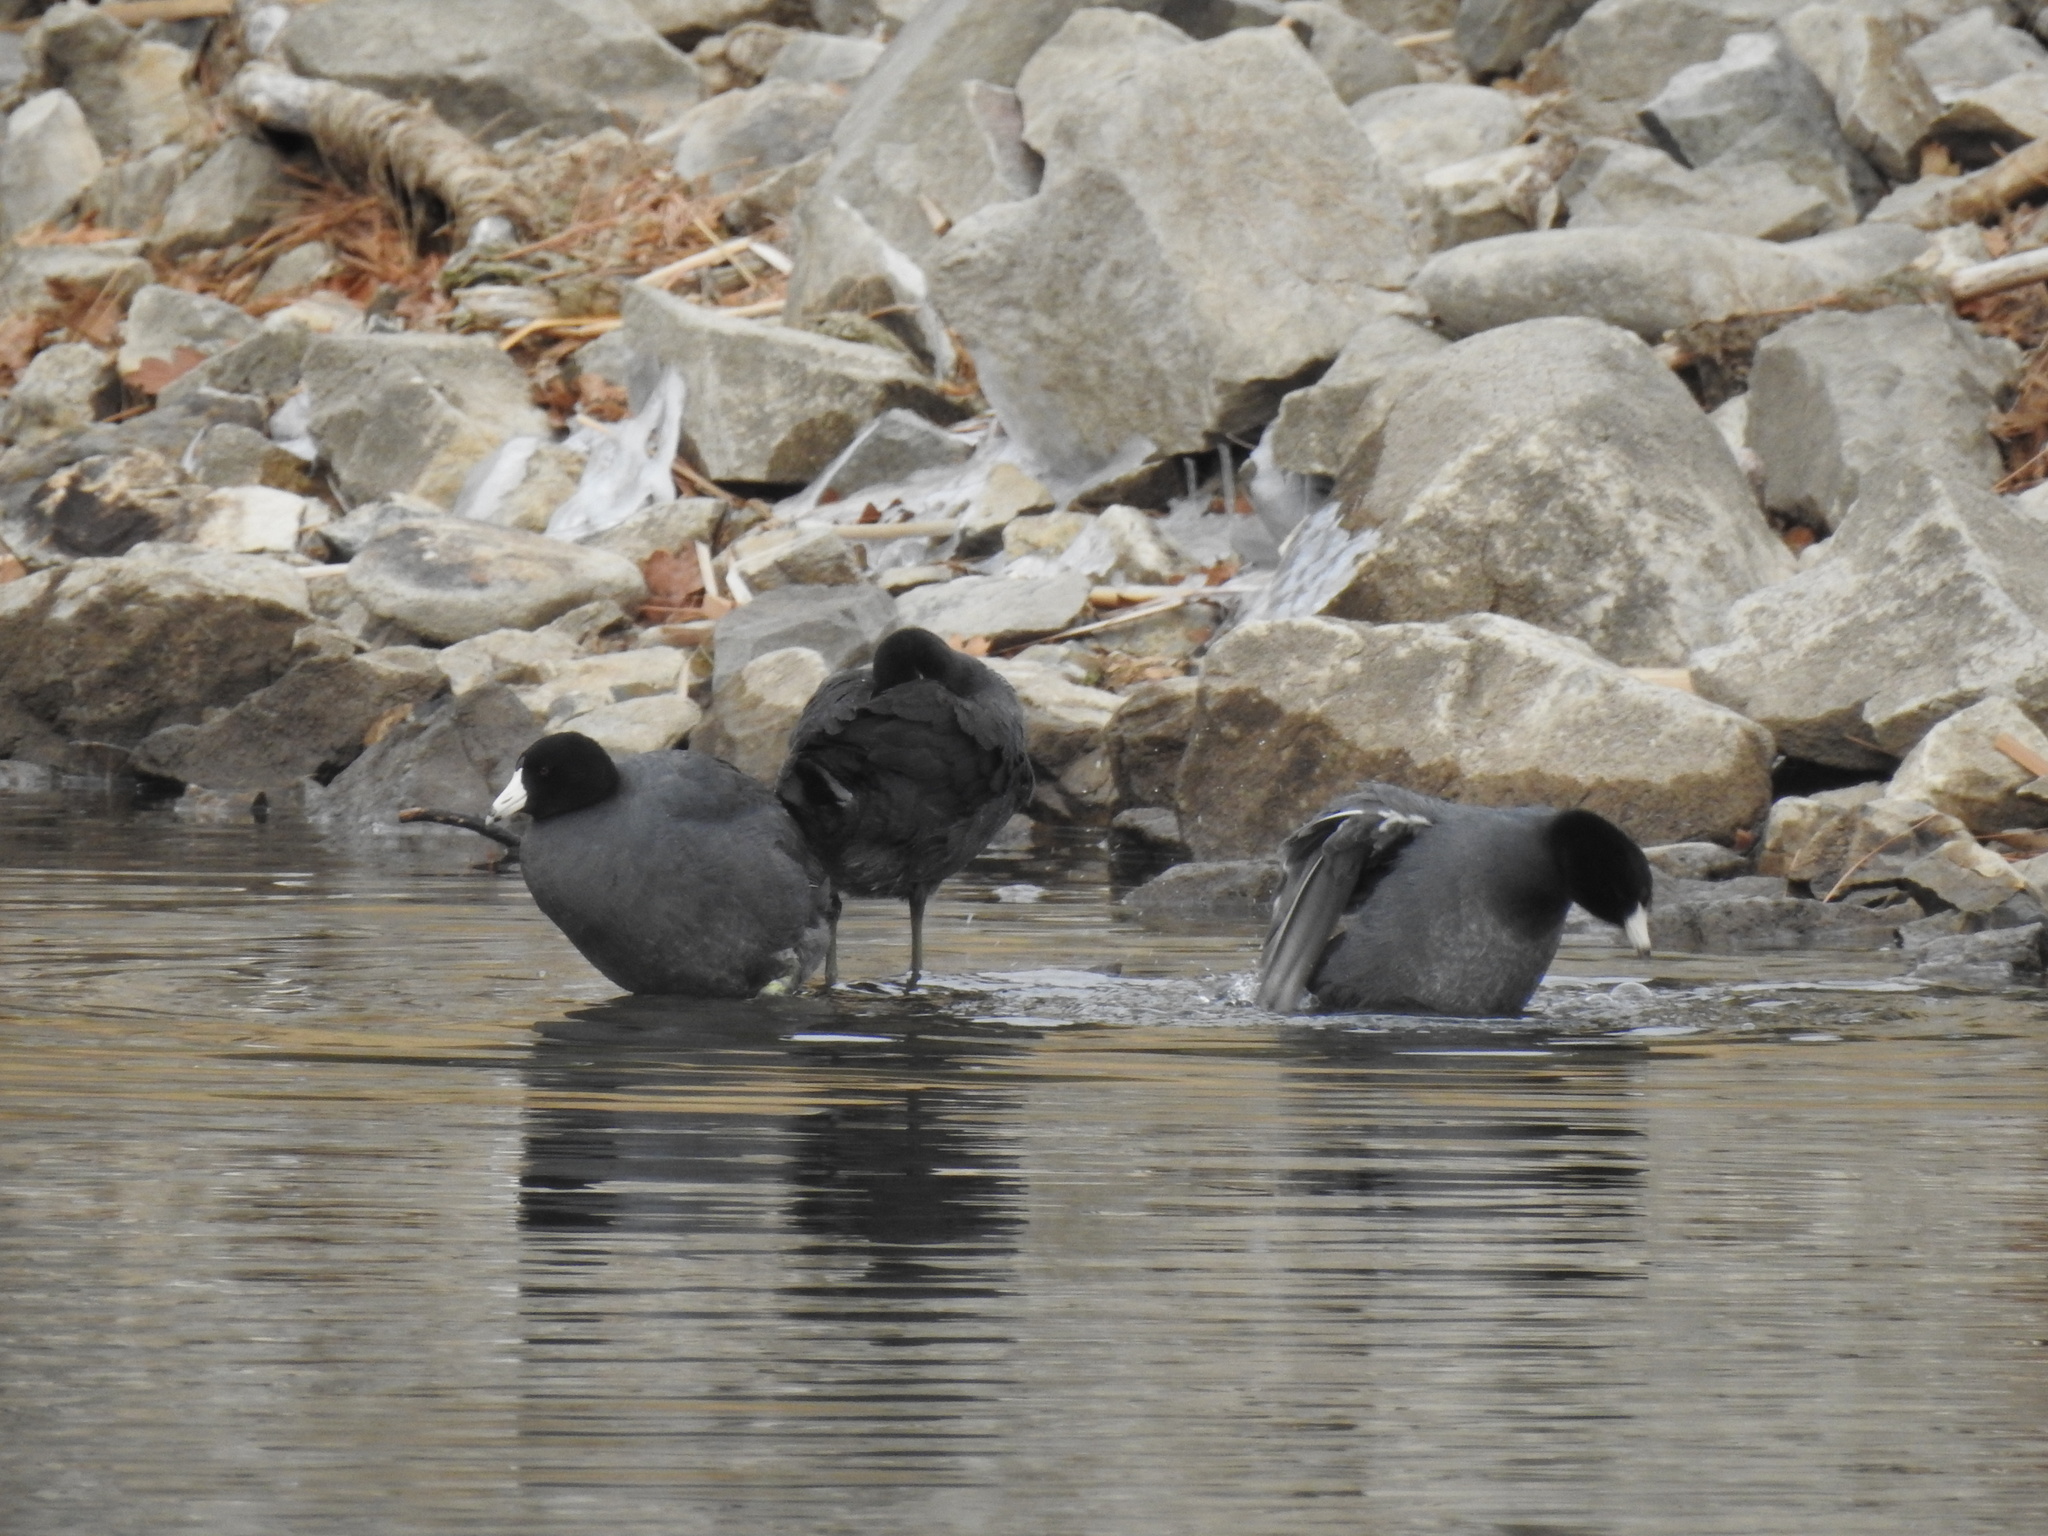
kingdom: Animalia
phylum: Chordata
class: Aves
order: Gruiformes
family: Rallidae
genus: Fulica
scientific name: Fulica americana
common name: American coot
